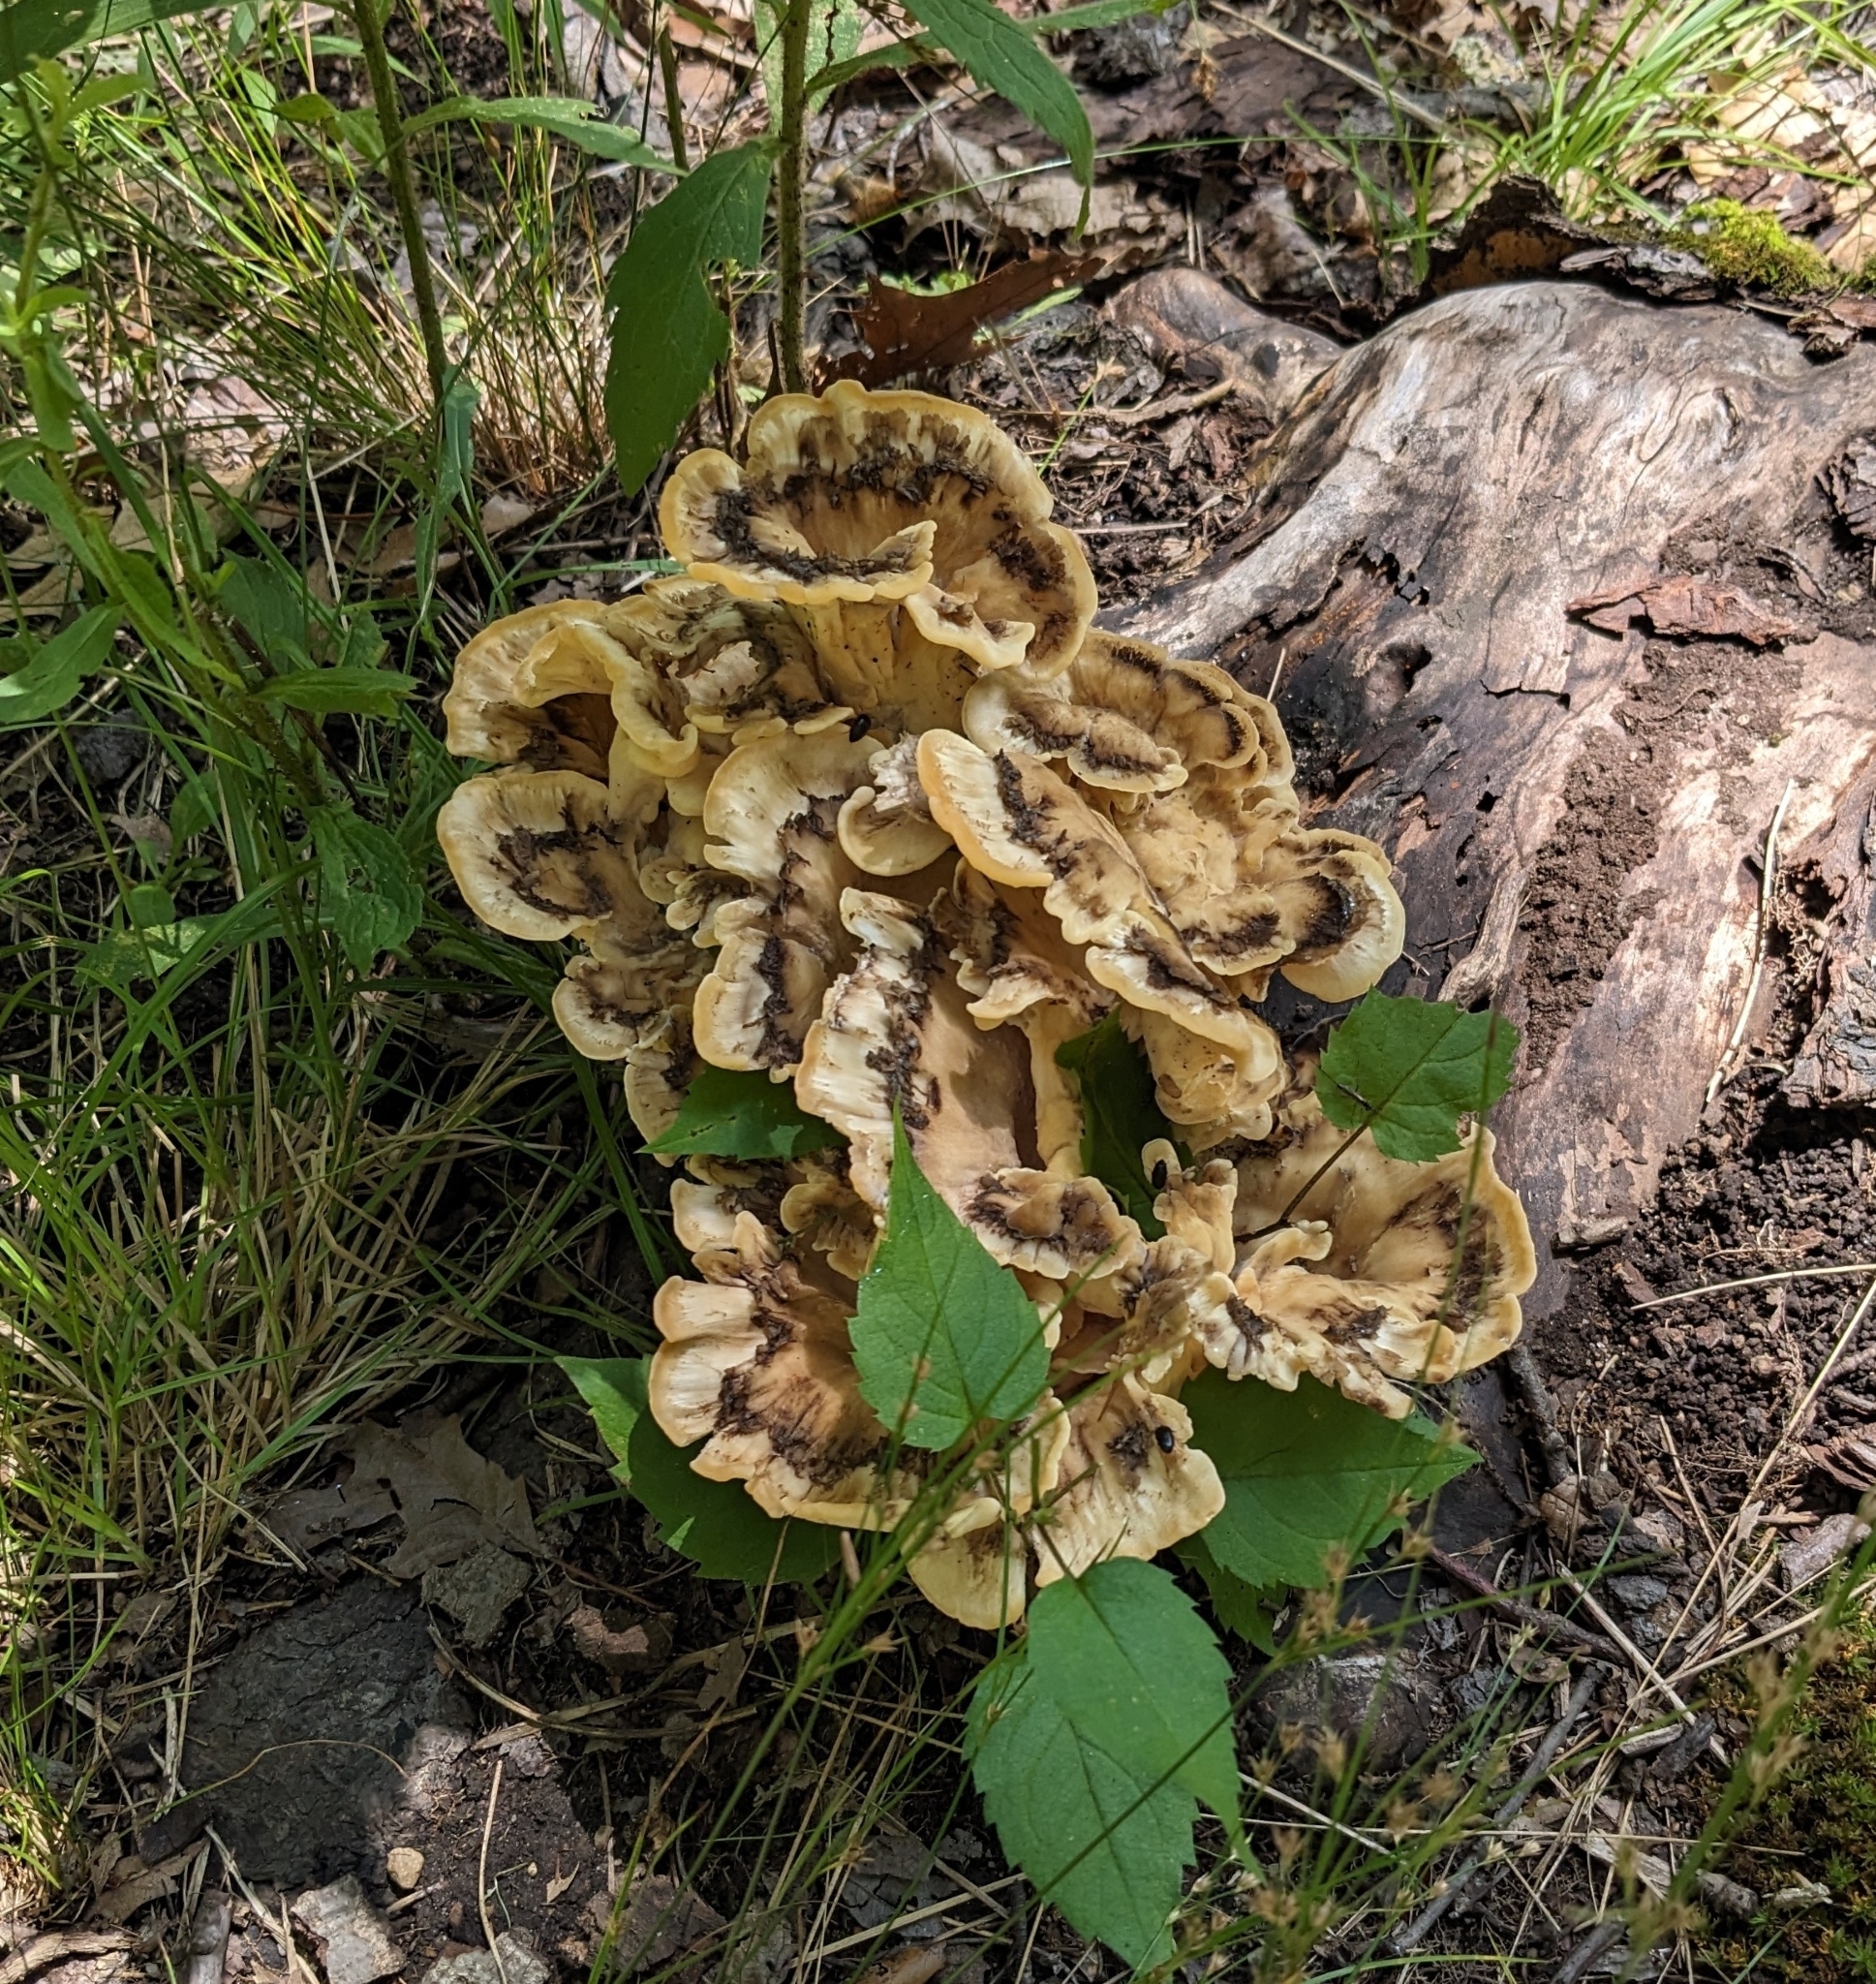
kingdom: Fungi
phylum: Basidiomycota
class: Agaricomycetes
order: Polyporales
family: Meripilaceae
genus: Meripilus
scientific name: Meripilus sumstinei
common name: Black-staining polypore
